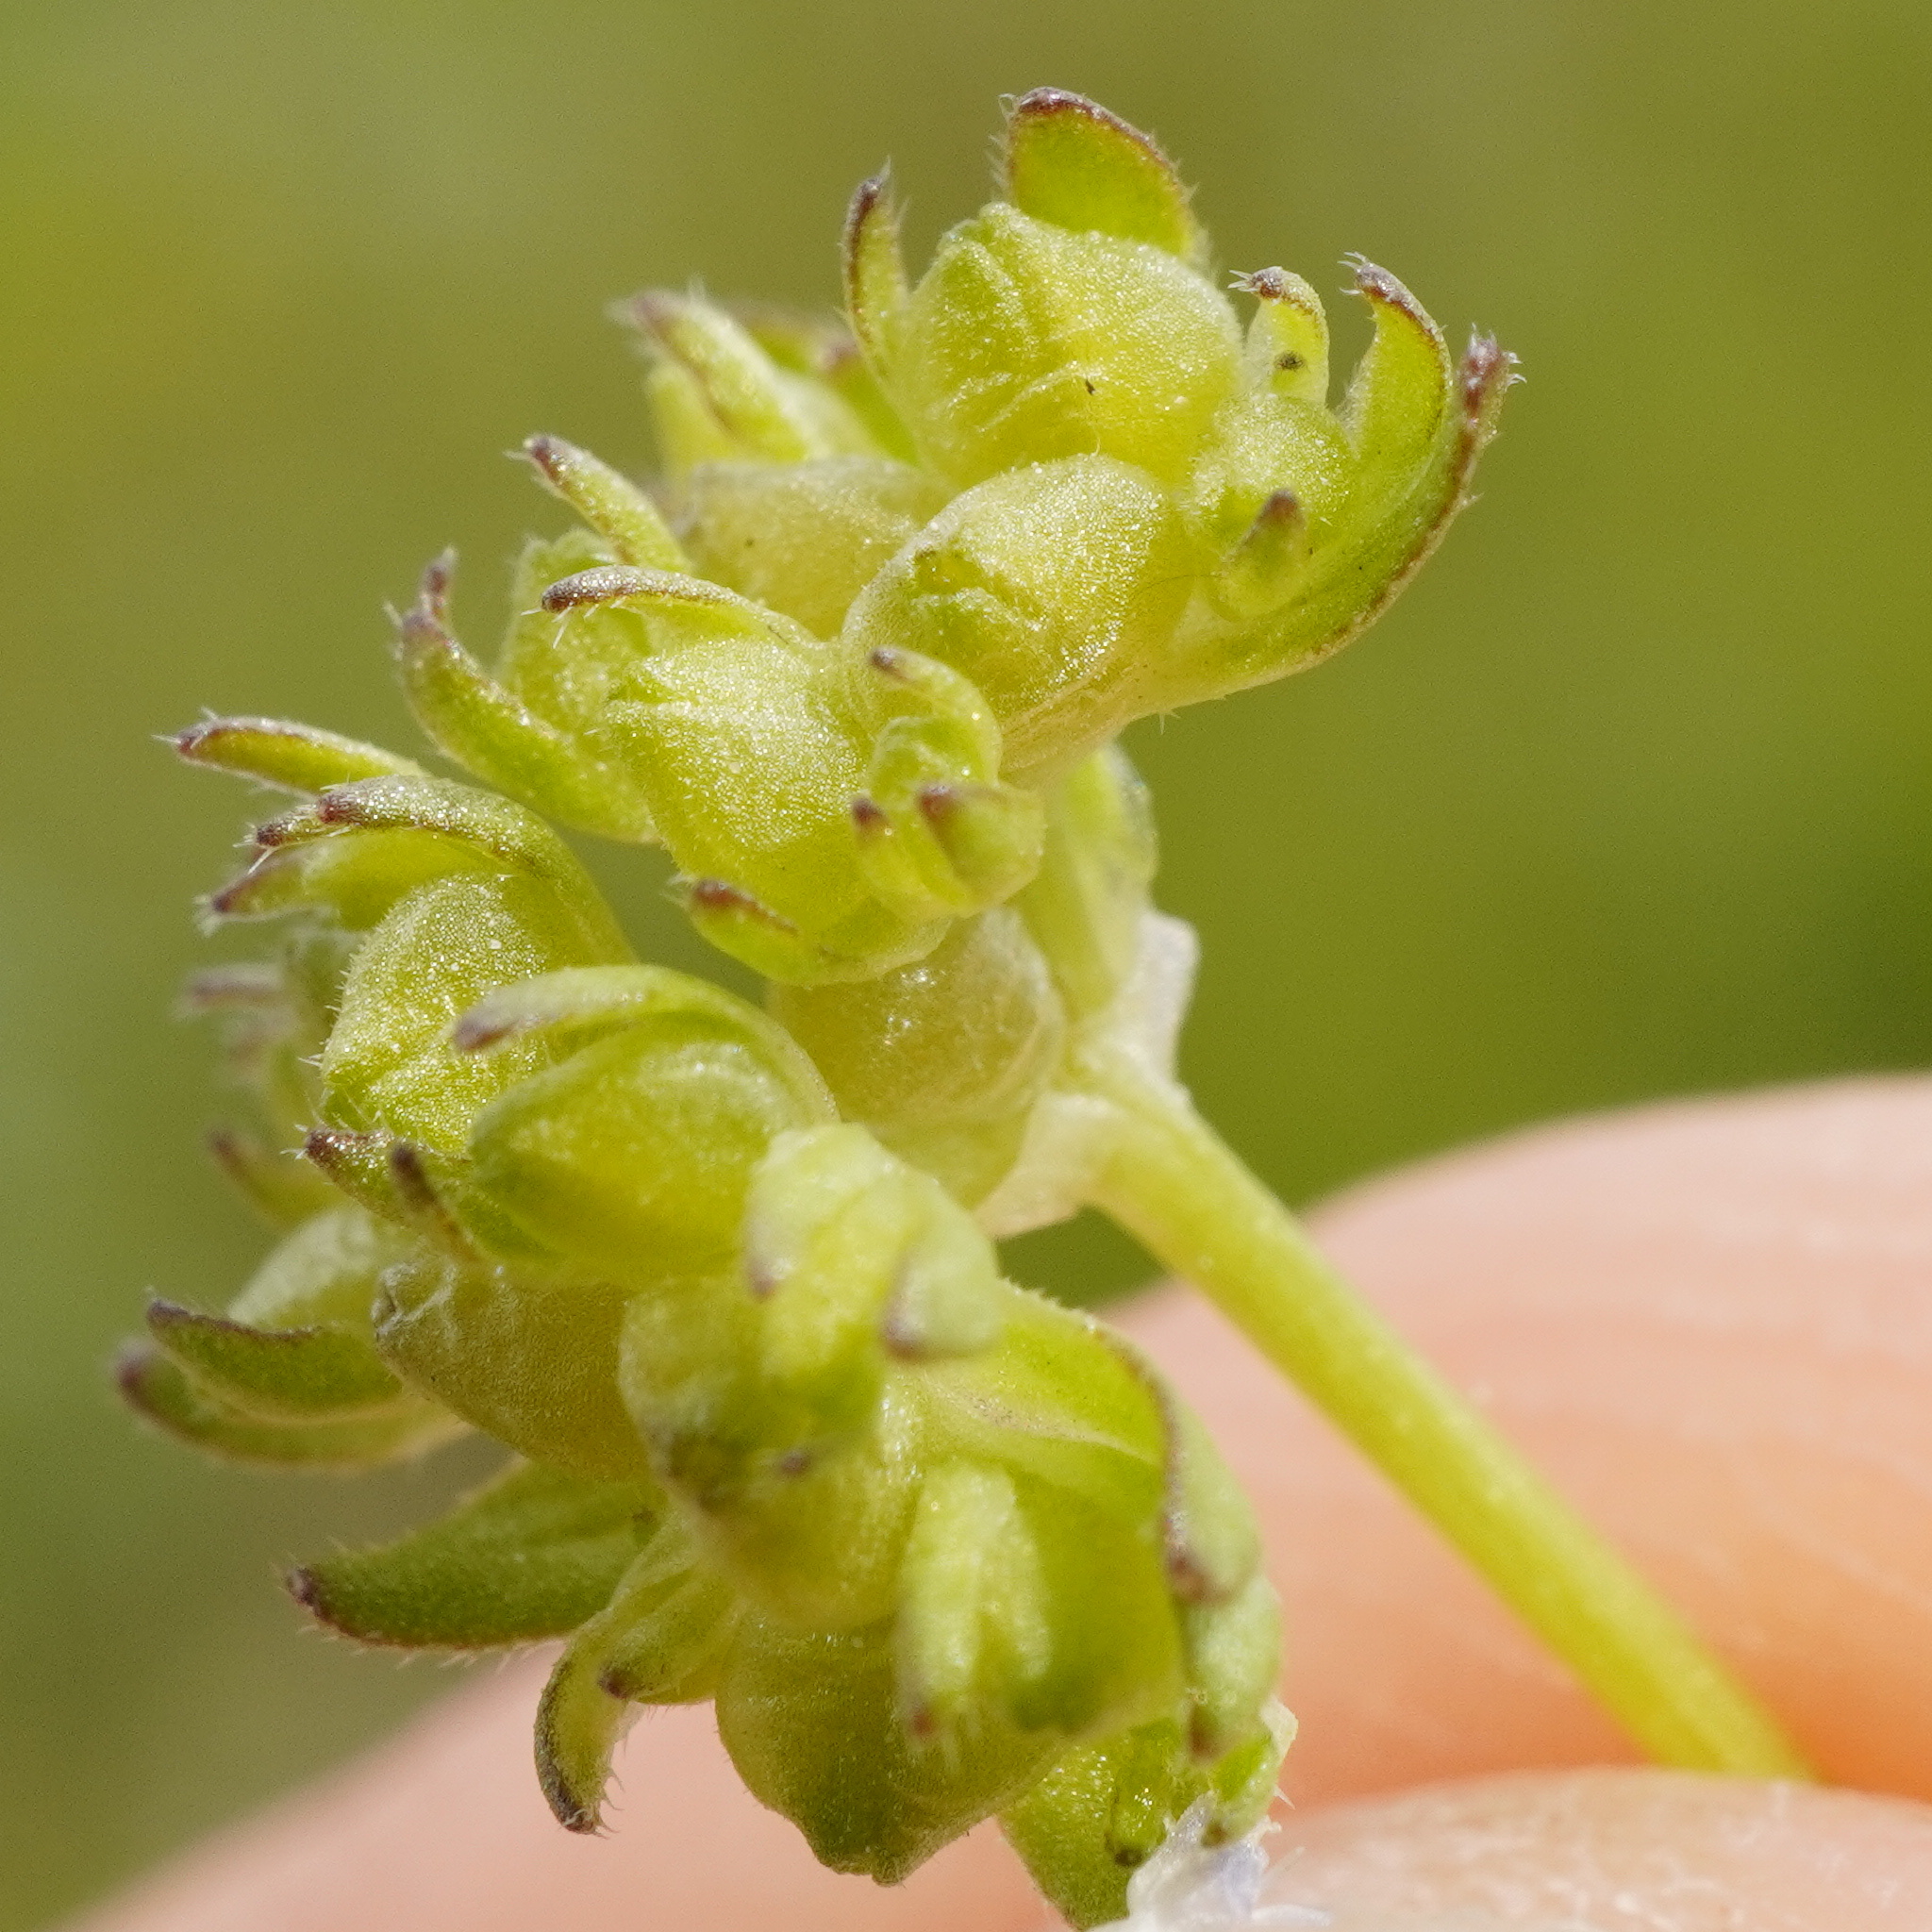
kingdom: Plantae
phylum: Tracheophyta
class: Magnoliopsida
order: Dipsacales
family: Caprifoliaceae
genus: Valerianella
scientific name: Valerianella locusta
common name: Common cornsalad
